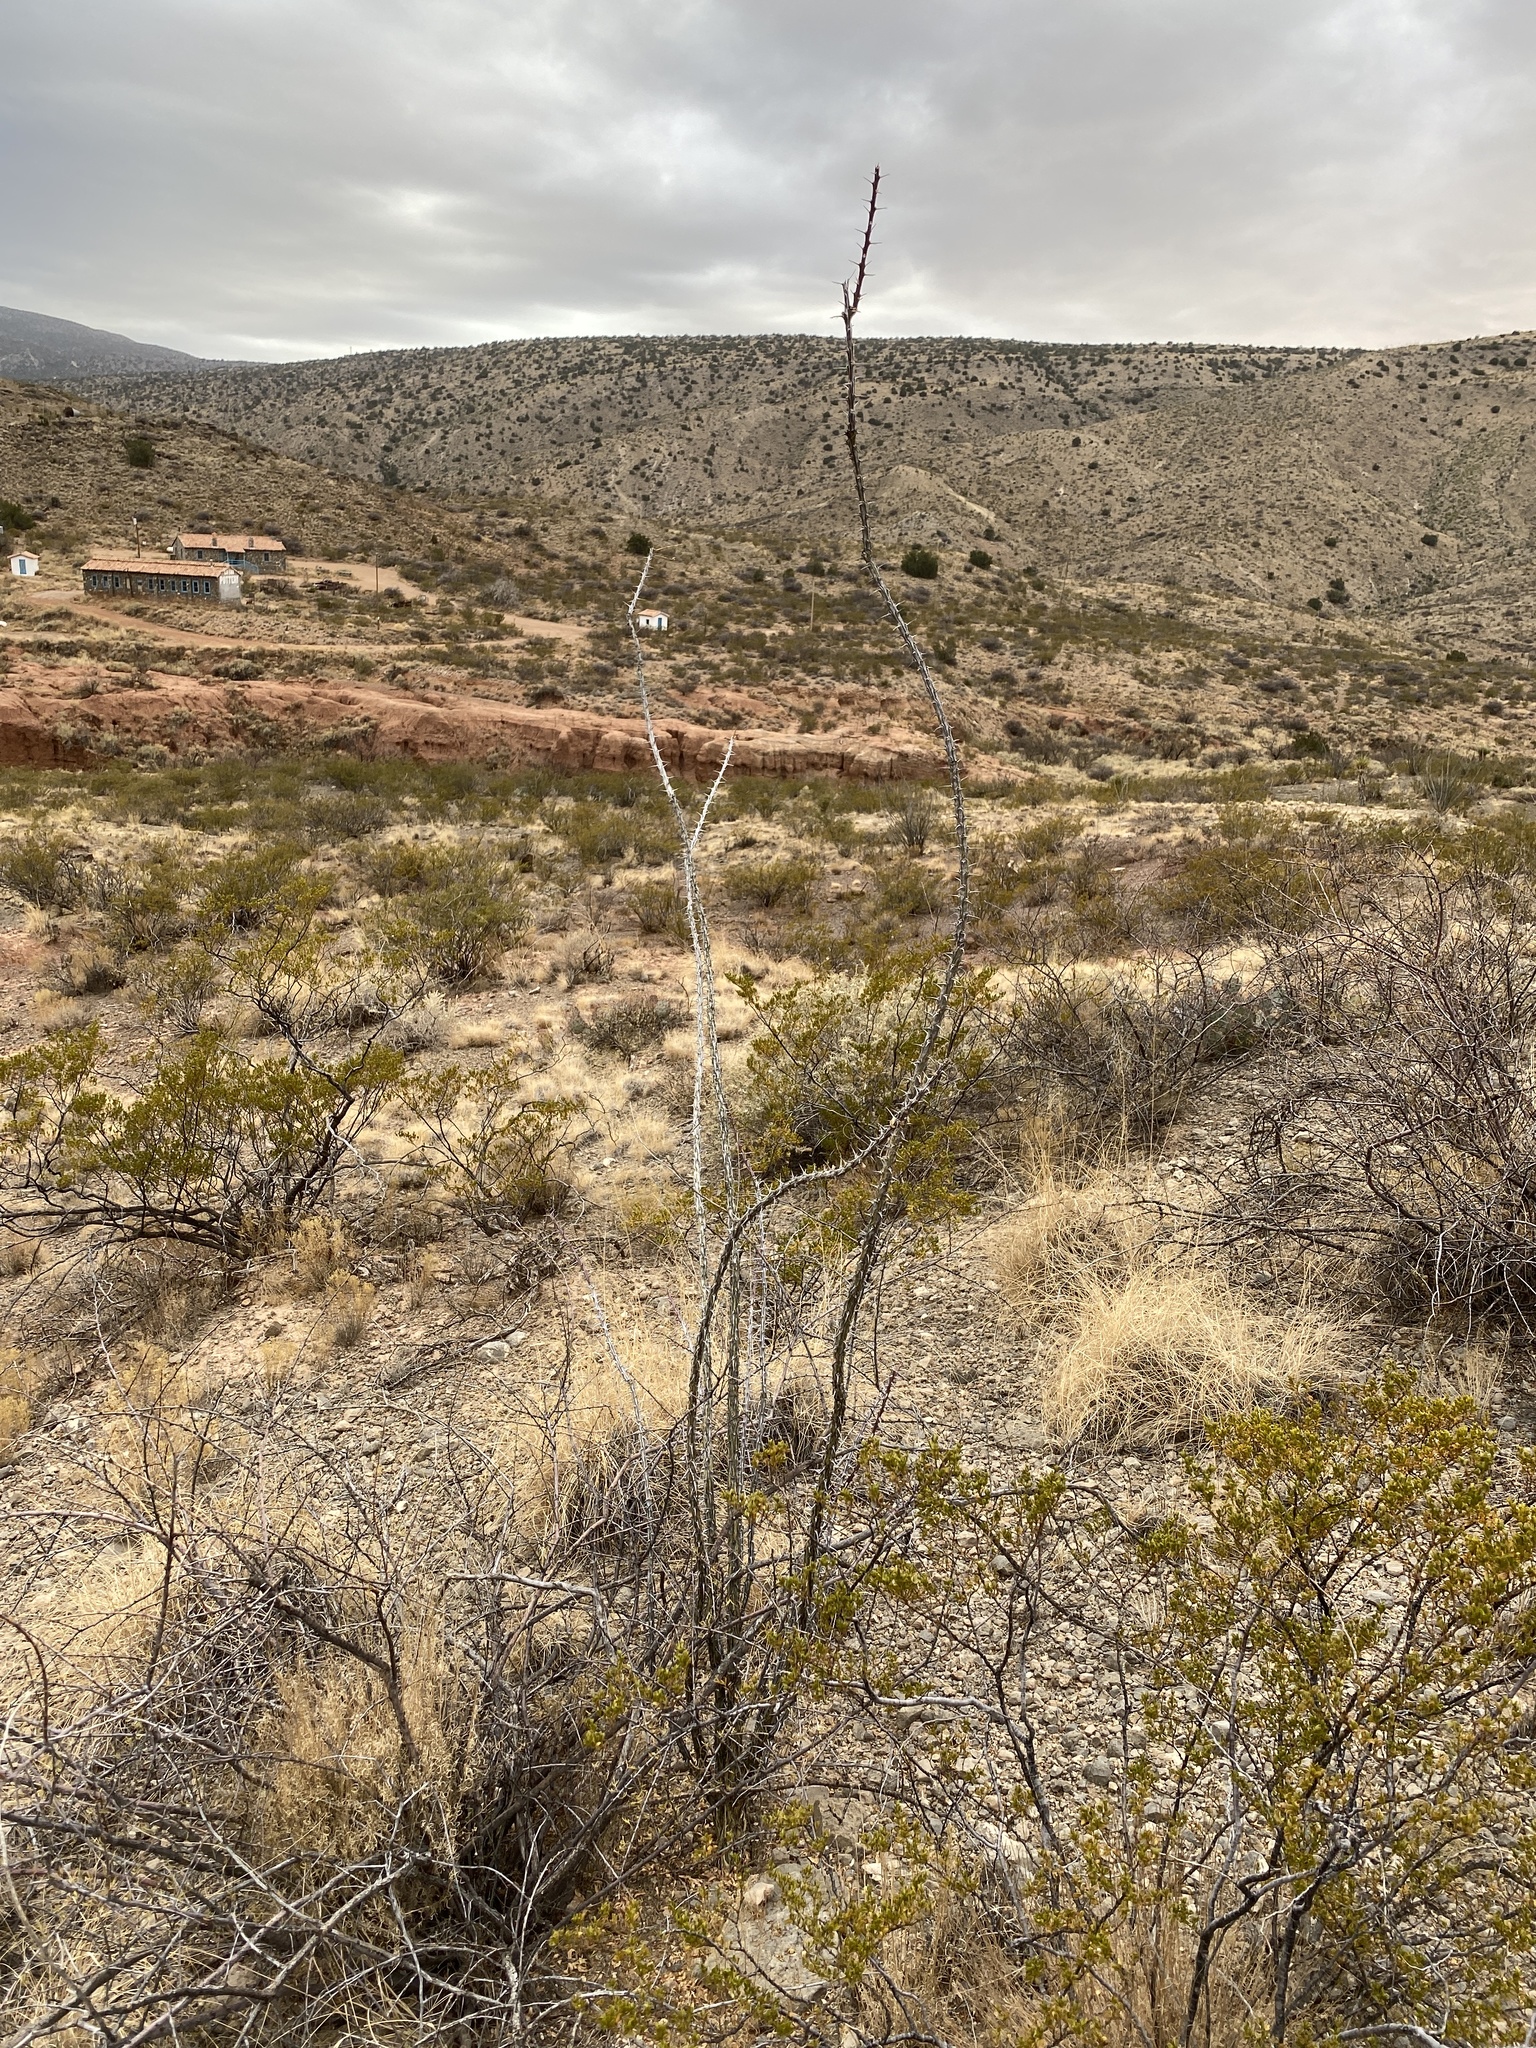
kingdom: Plantae
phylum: Tracheophyta
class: Magnoliopsida
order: Ericales
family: Fouquieriaceae
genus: Fouquieria
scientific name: Fouquieria splendens
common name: Vine-cactus
